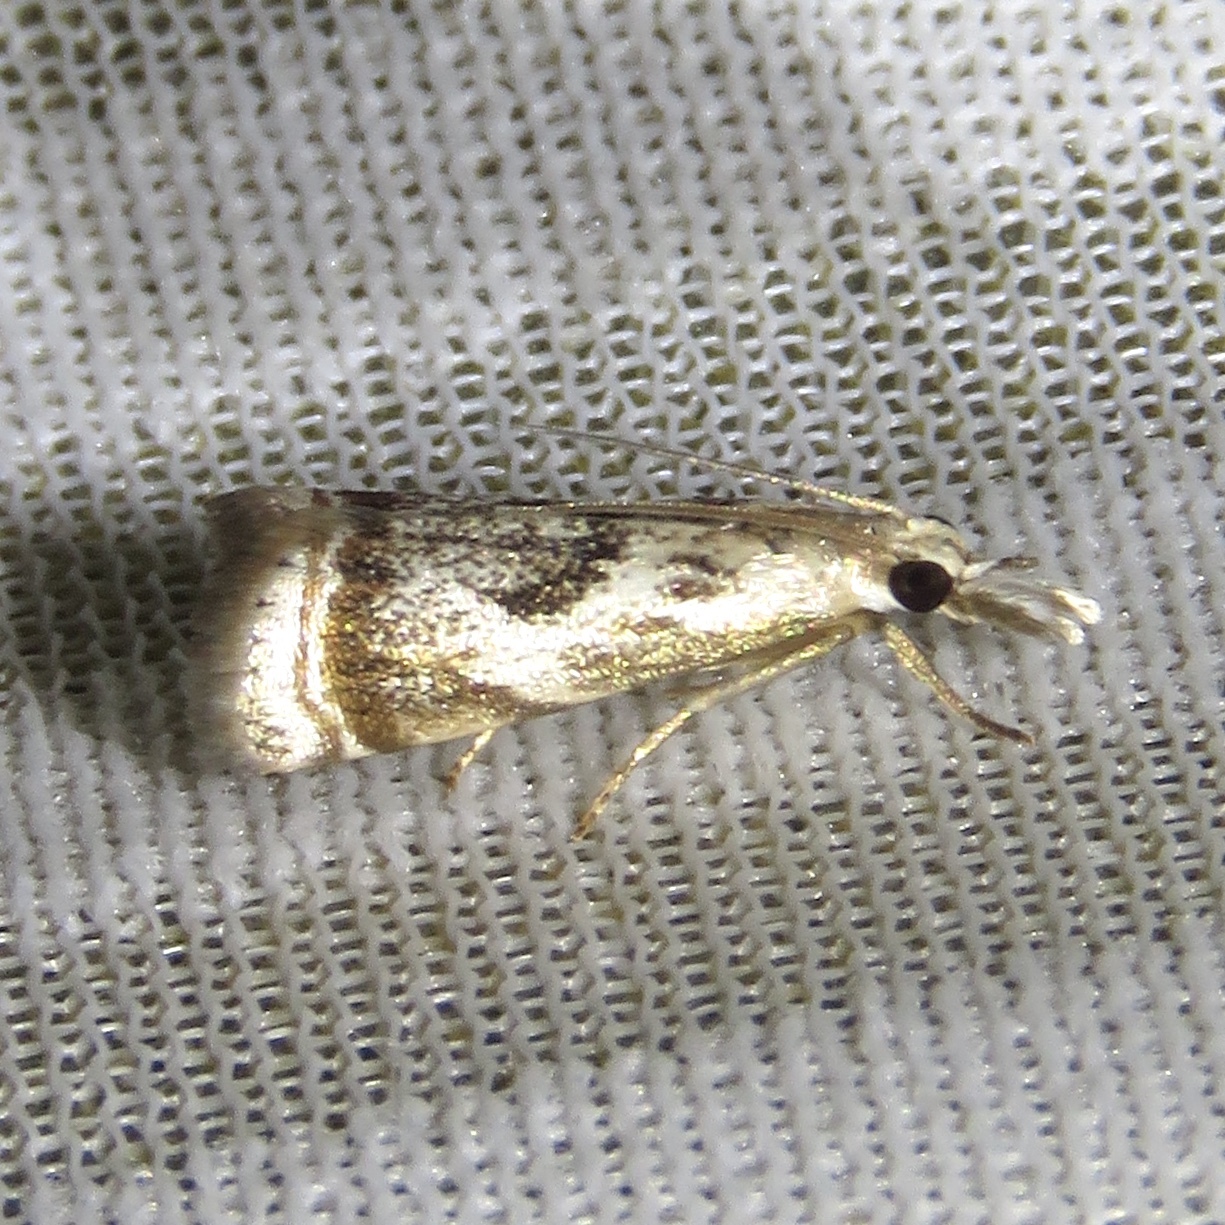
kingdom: Animalia
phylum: Arthropoda
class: Insecta
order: Lepidoptera
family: Crambidae
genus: Microcrambus
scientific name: Microcrambus elegans
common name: Elegant grass-veneer
